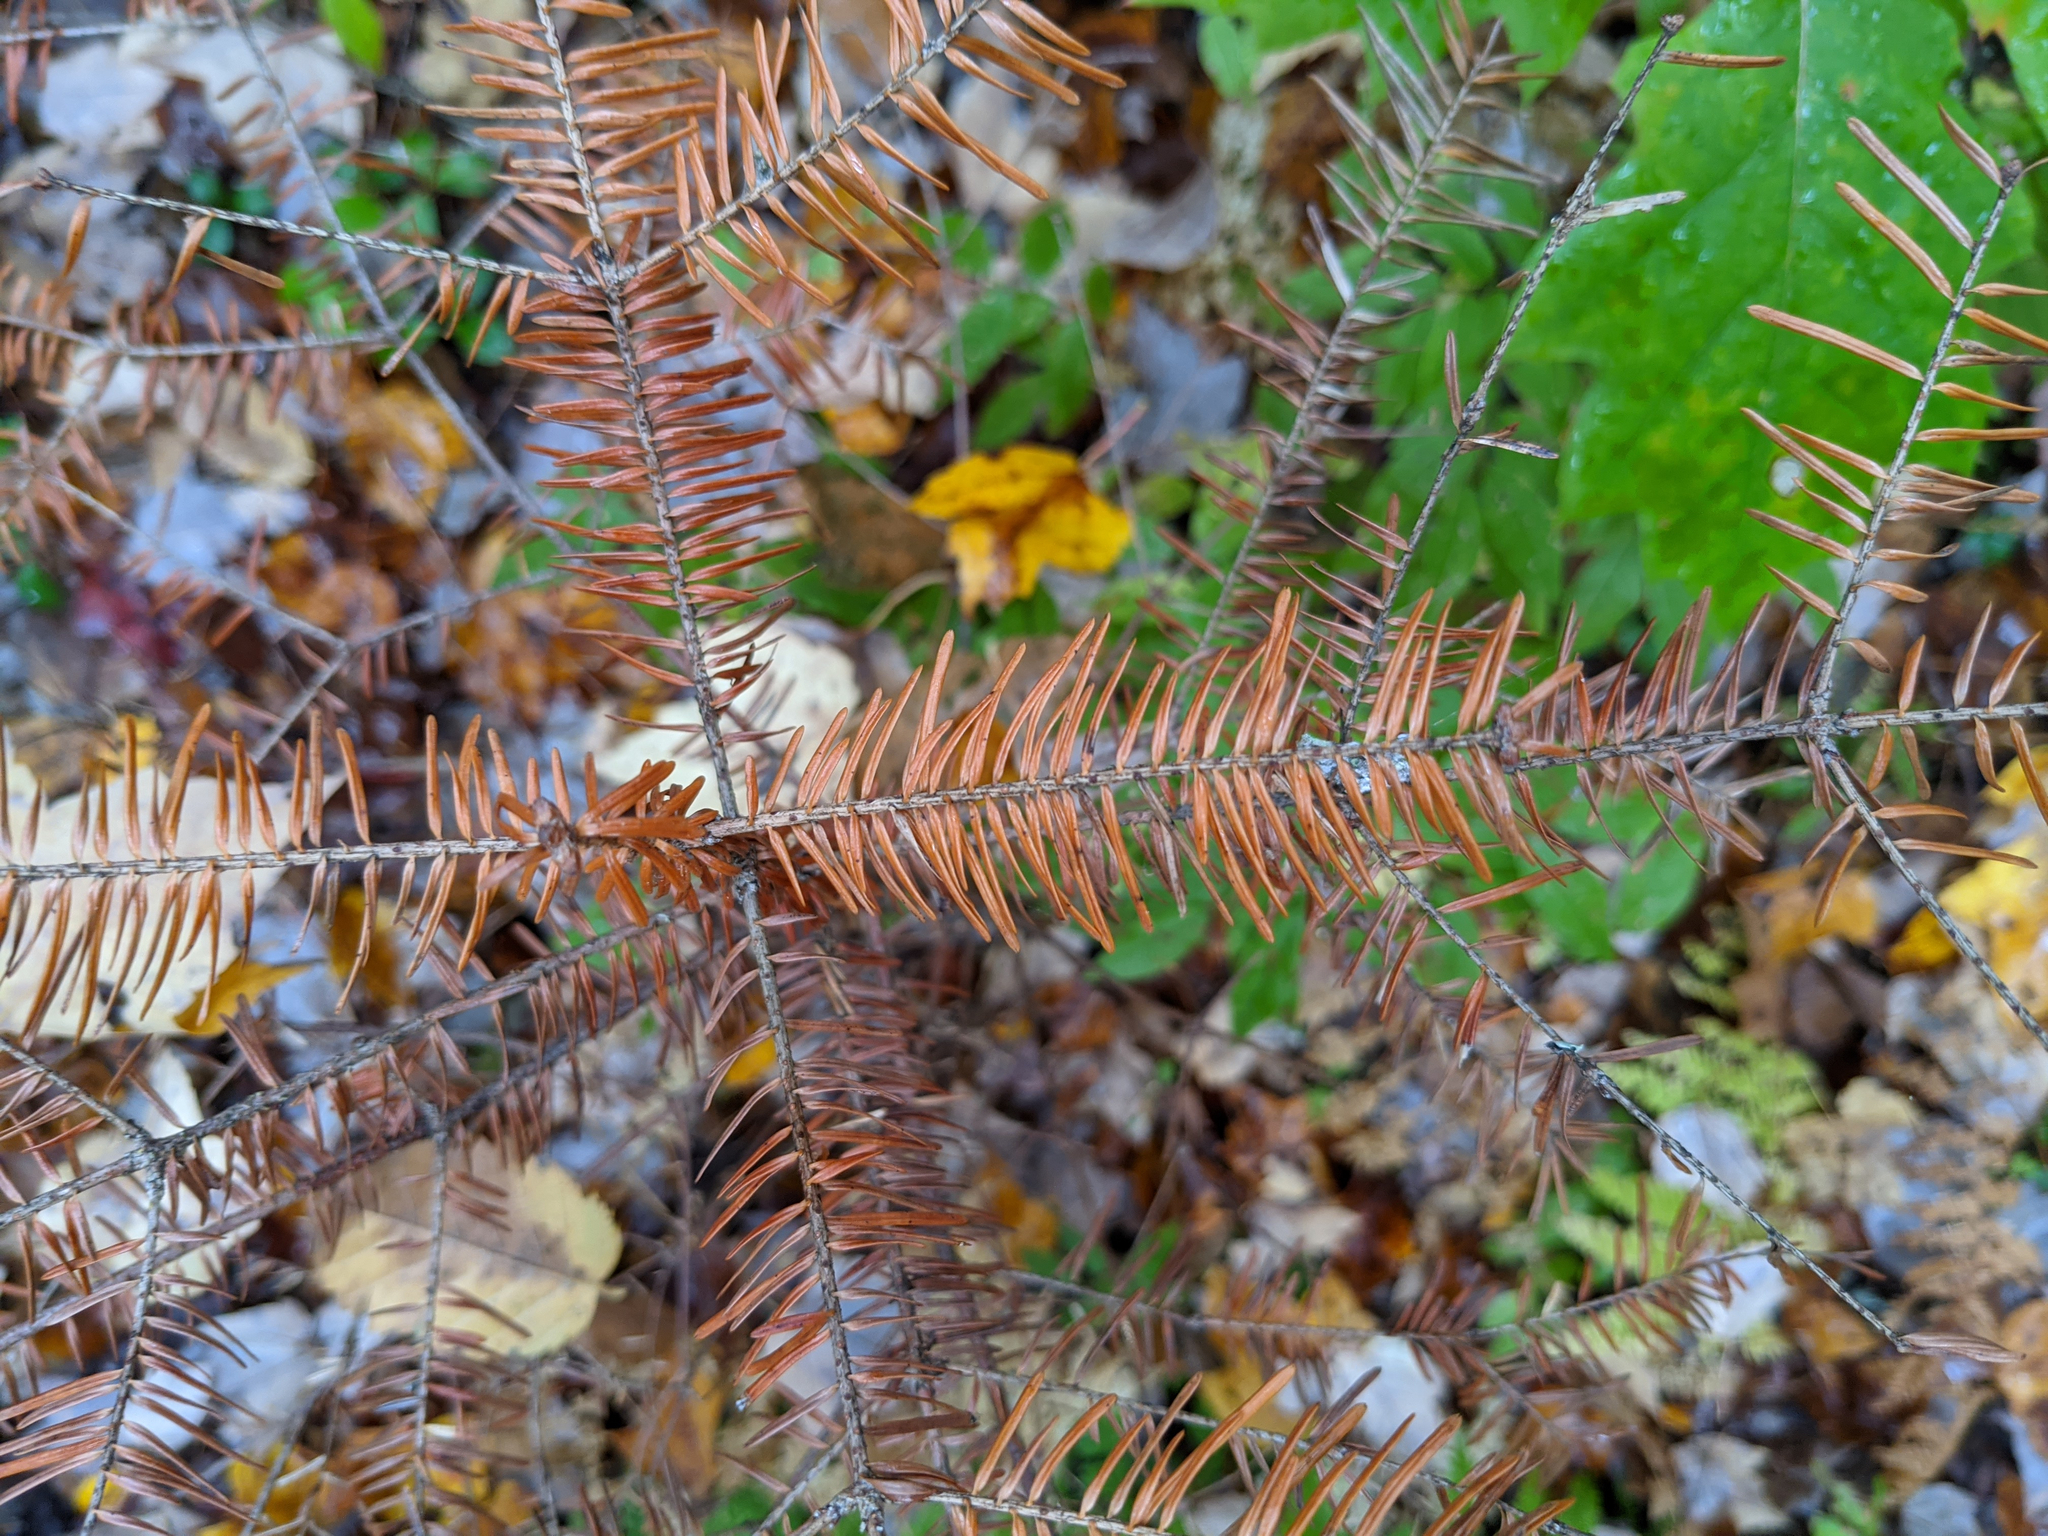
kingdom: Plantae
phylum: Tracheophyta
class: Pinopsida
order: Pinales
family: Pinaceae
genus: Abies
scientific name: Abies balsamea
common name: Balsam fir
